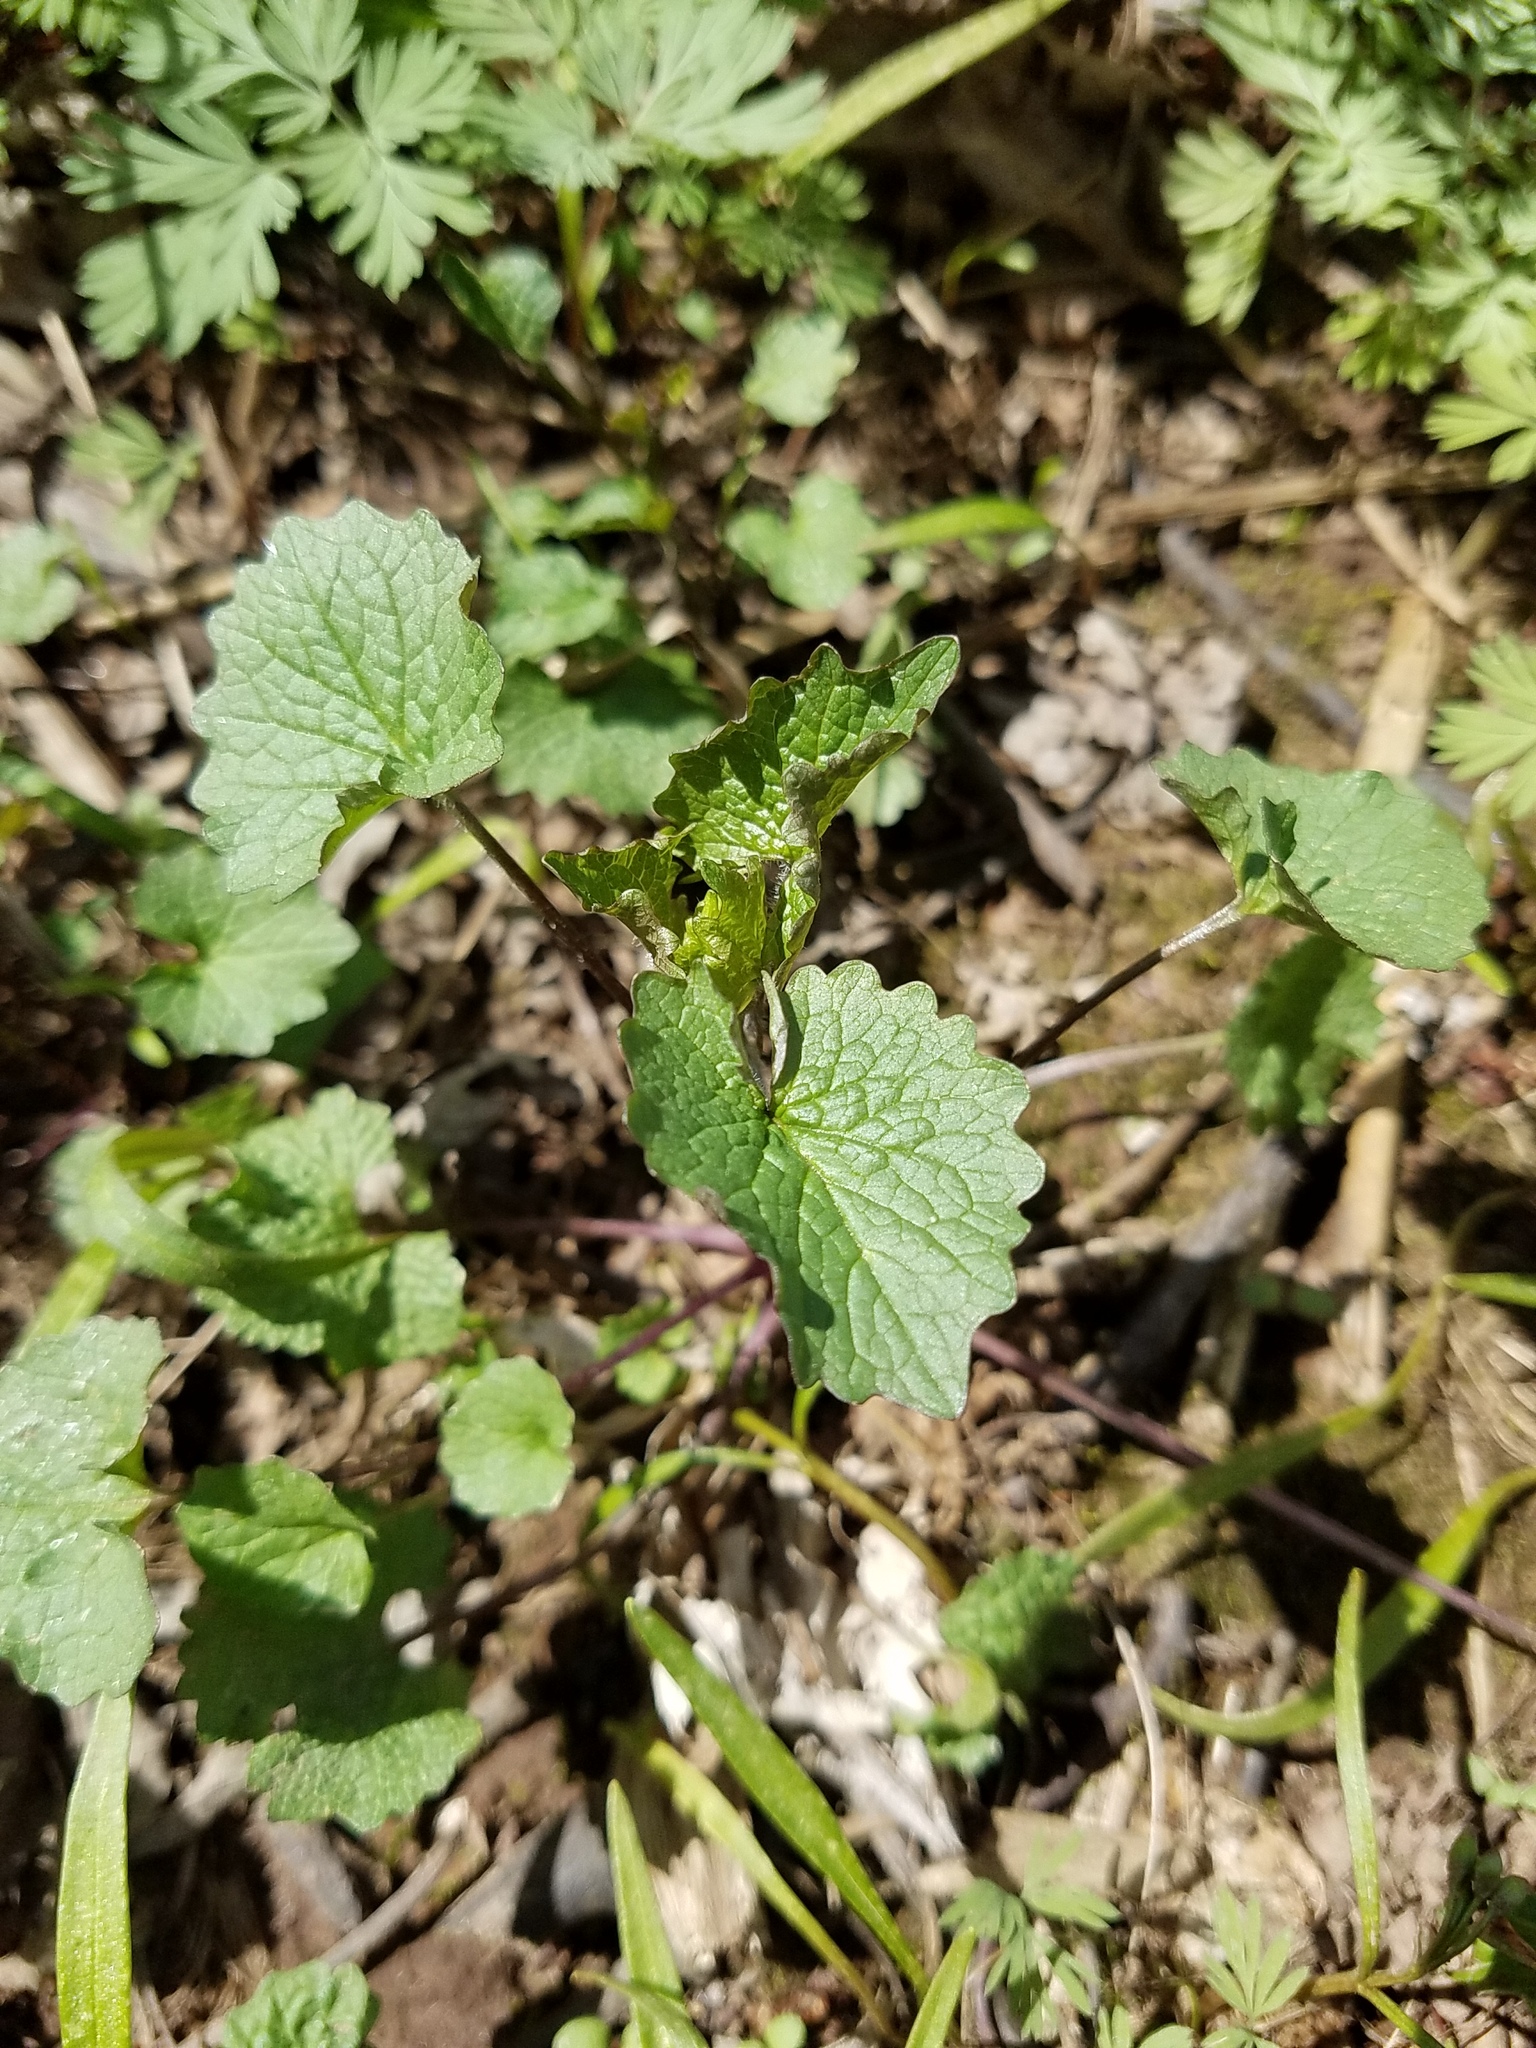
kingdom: Plantae
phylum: Tracheophyta
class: Magnoliopsida
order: Brassicales
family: Brassicaceae
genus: Alliaria
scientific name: Alliaria petiolata
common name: Garlic mustard
